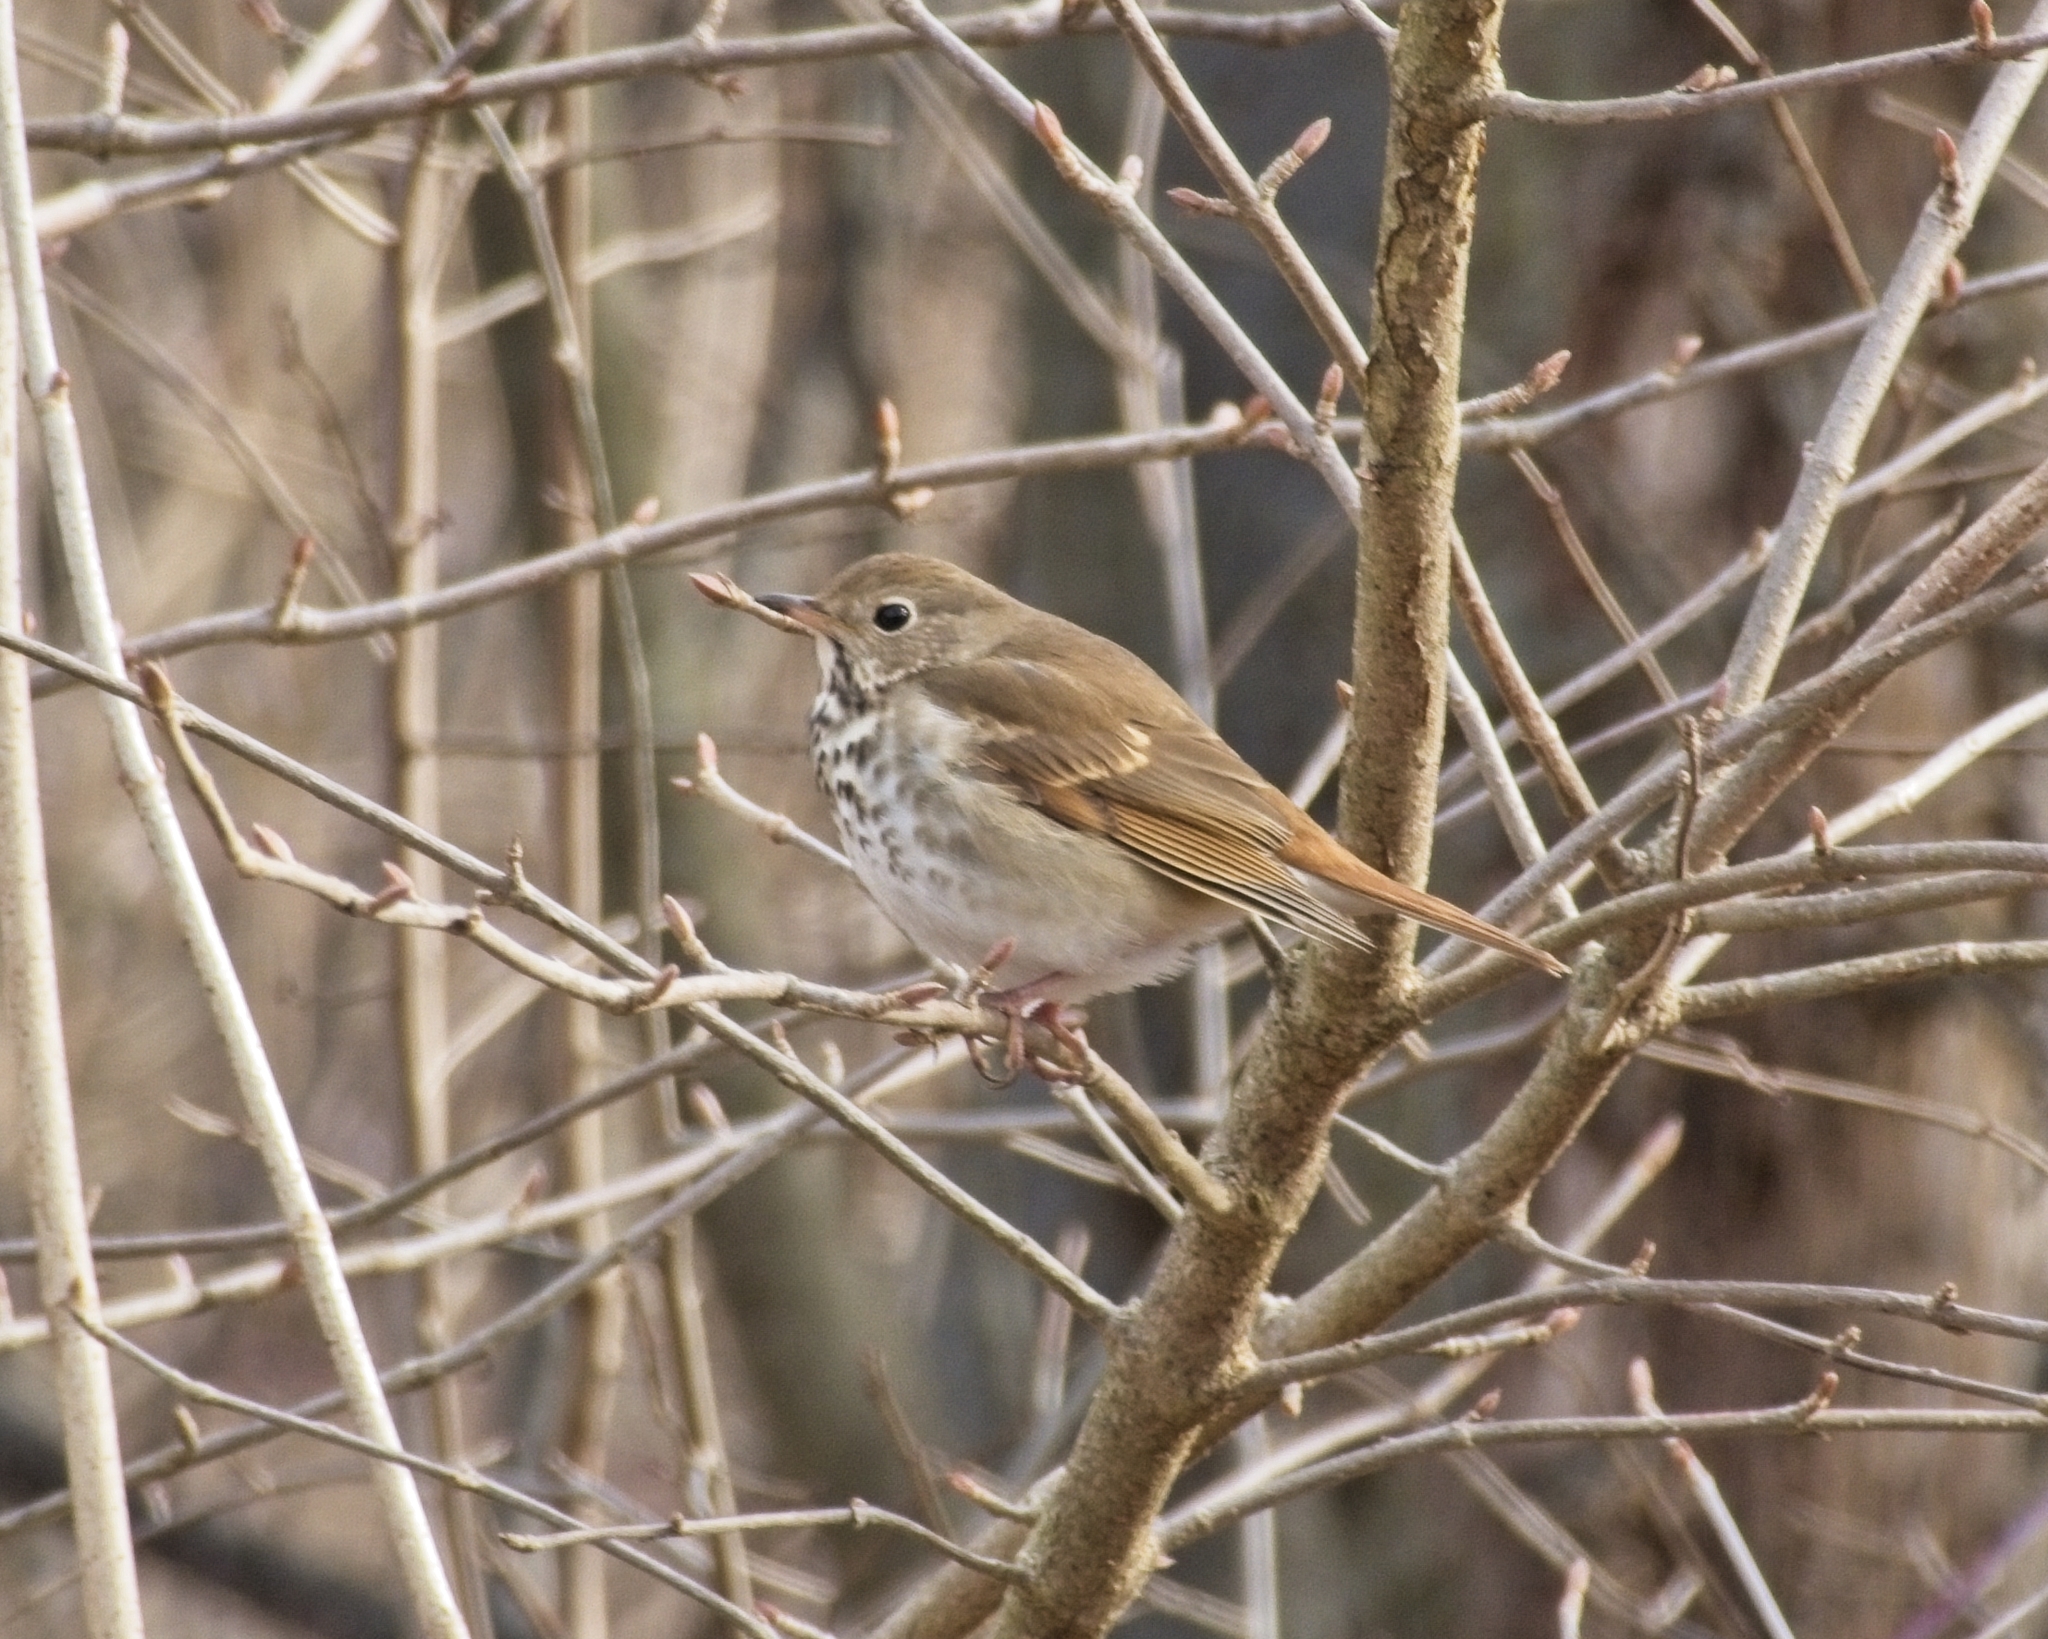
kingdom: Animalia
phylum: Chordata
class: Aves
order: Passeriformes
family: Turdidae
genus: Catharus
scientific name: Catharus guttatus
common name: Hermit thrush
